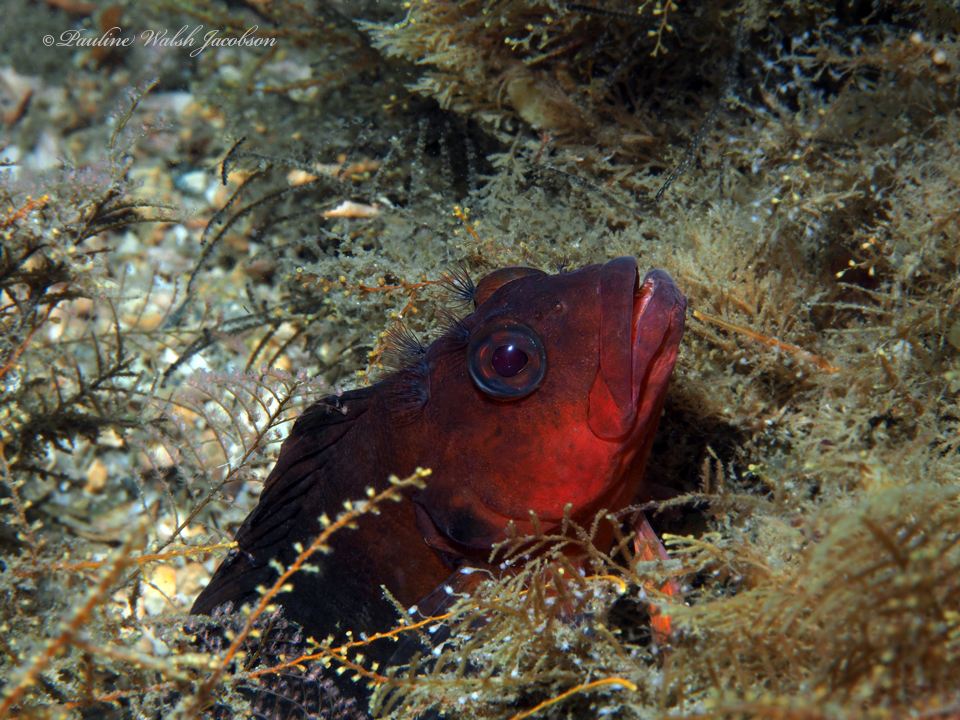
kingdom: Animalia
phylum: Chordata
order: Perciformes
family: Labrisomidae
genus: Labrisomus
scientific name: Labrisomus conditus
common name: Masquerader hairy blenny
